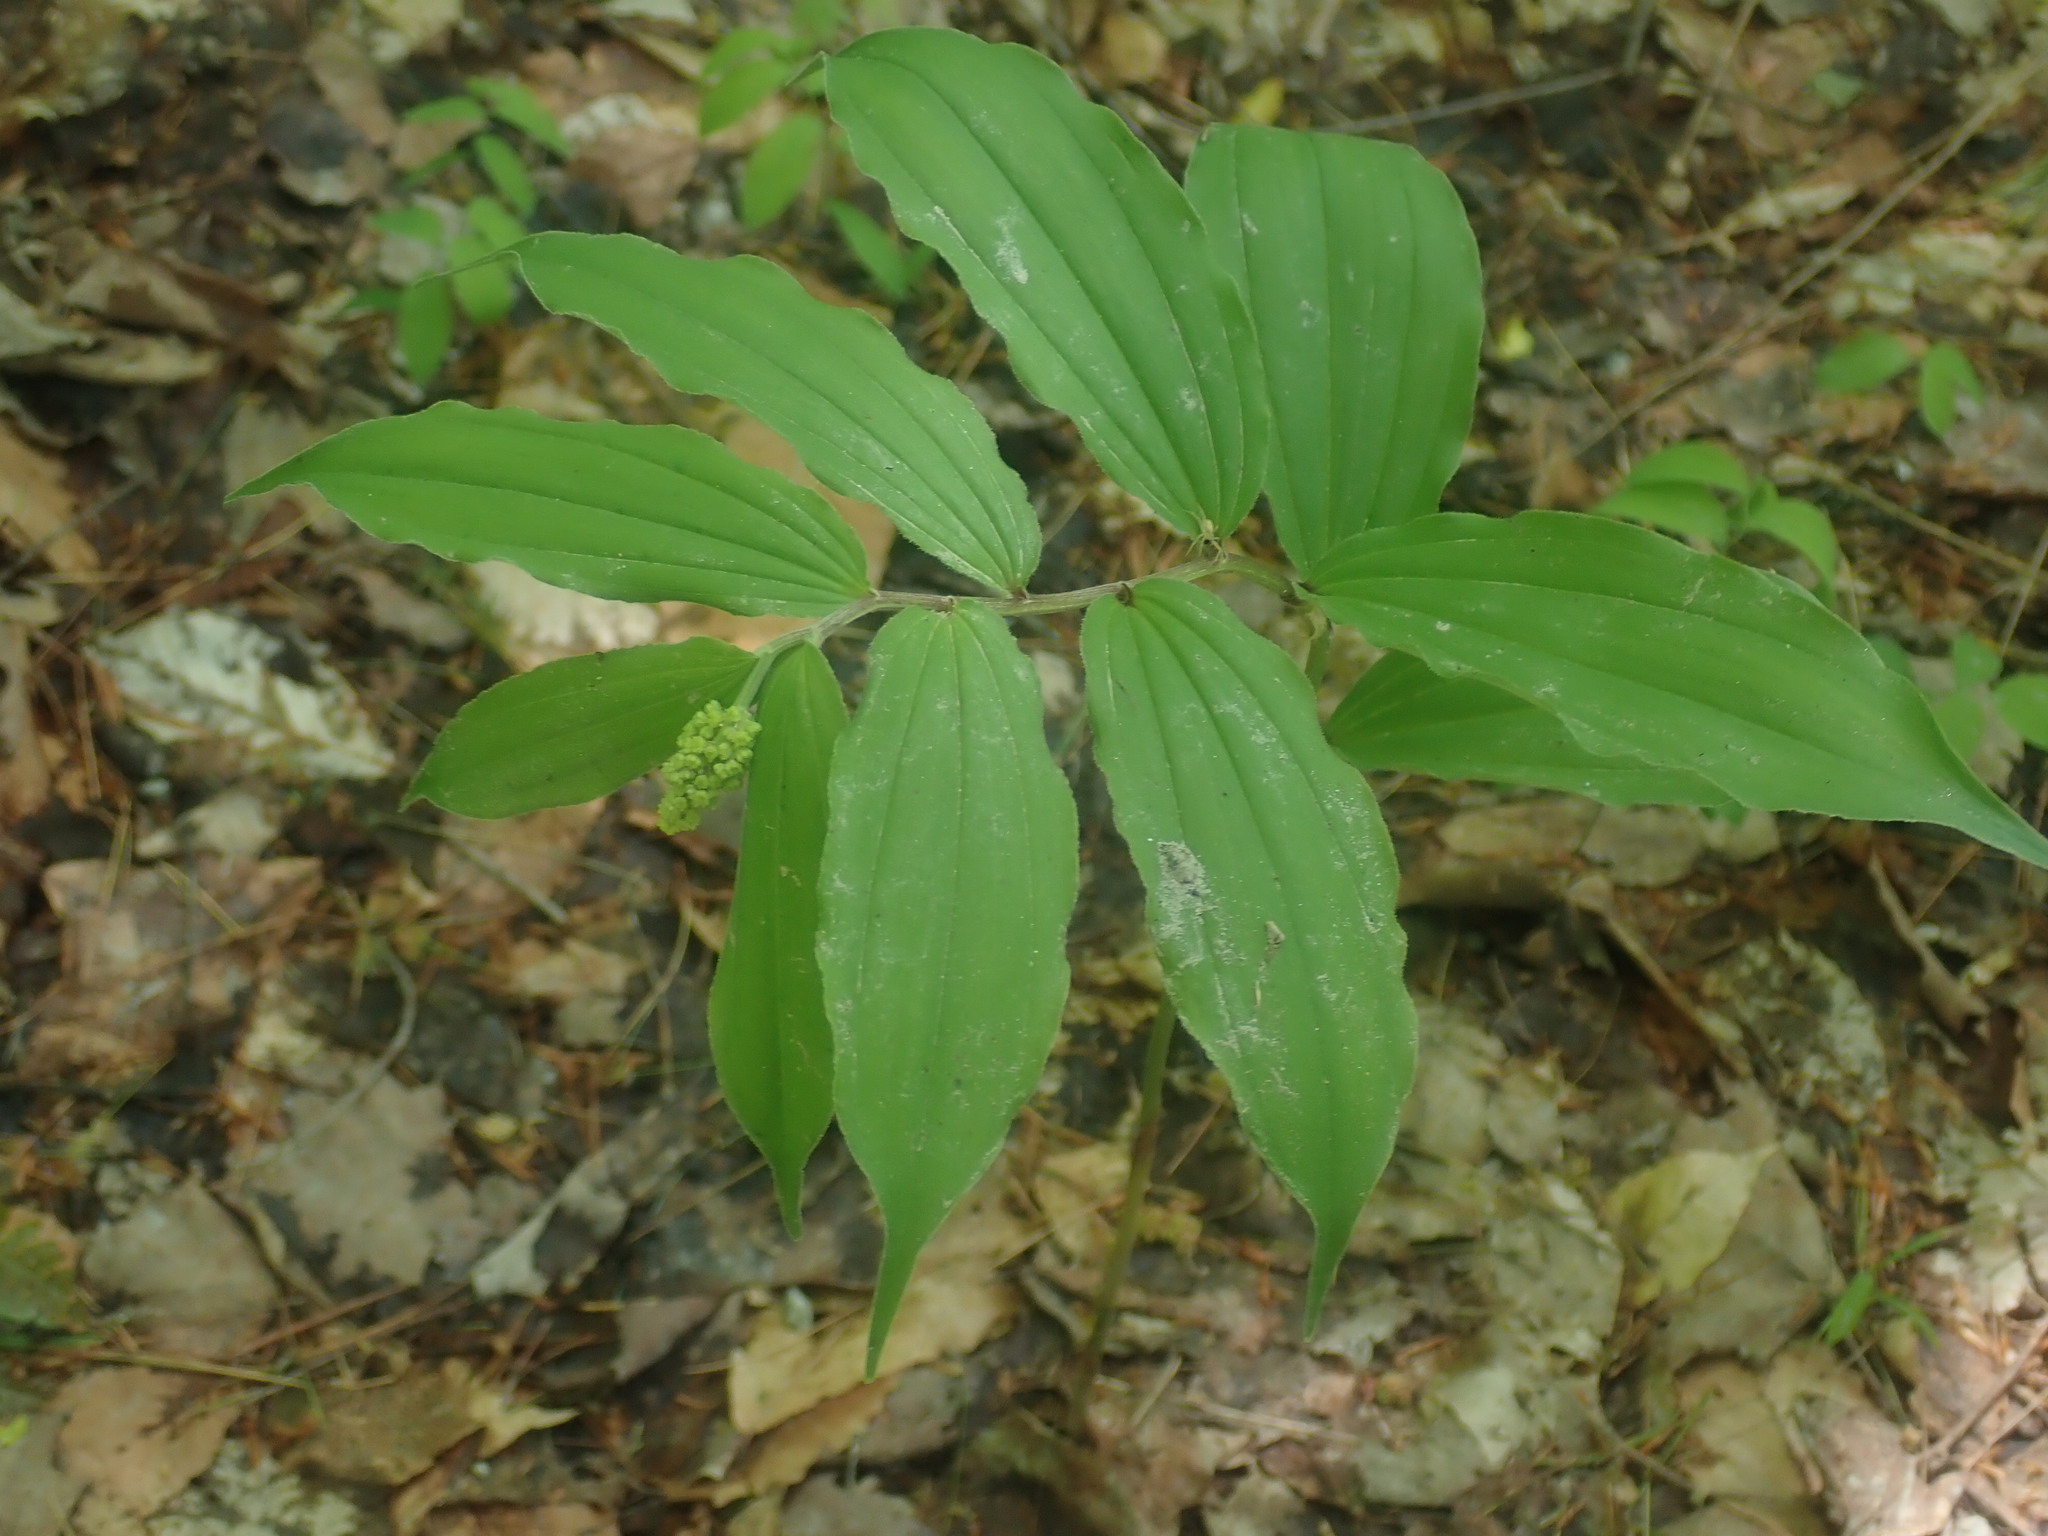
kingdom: Plantae
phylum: Tracheophyta
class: Liliopsida
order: Asparagales
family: Asparagaceae
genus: Maianthemum
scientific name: Maianthemum racemosum
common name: False spikenard
